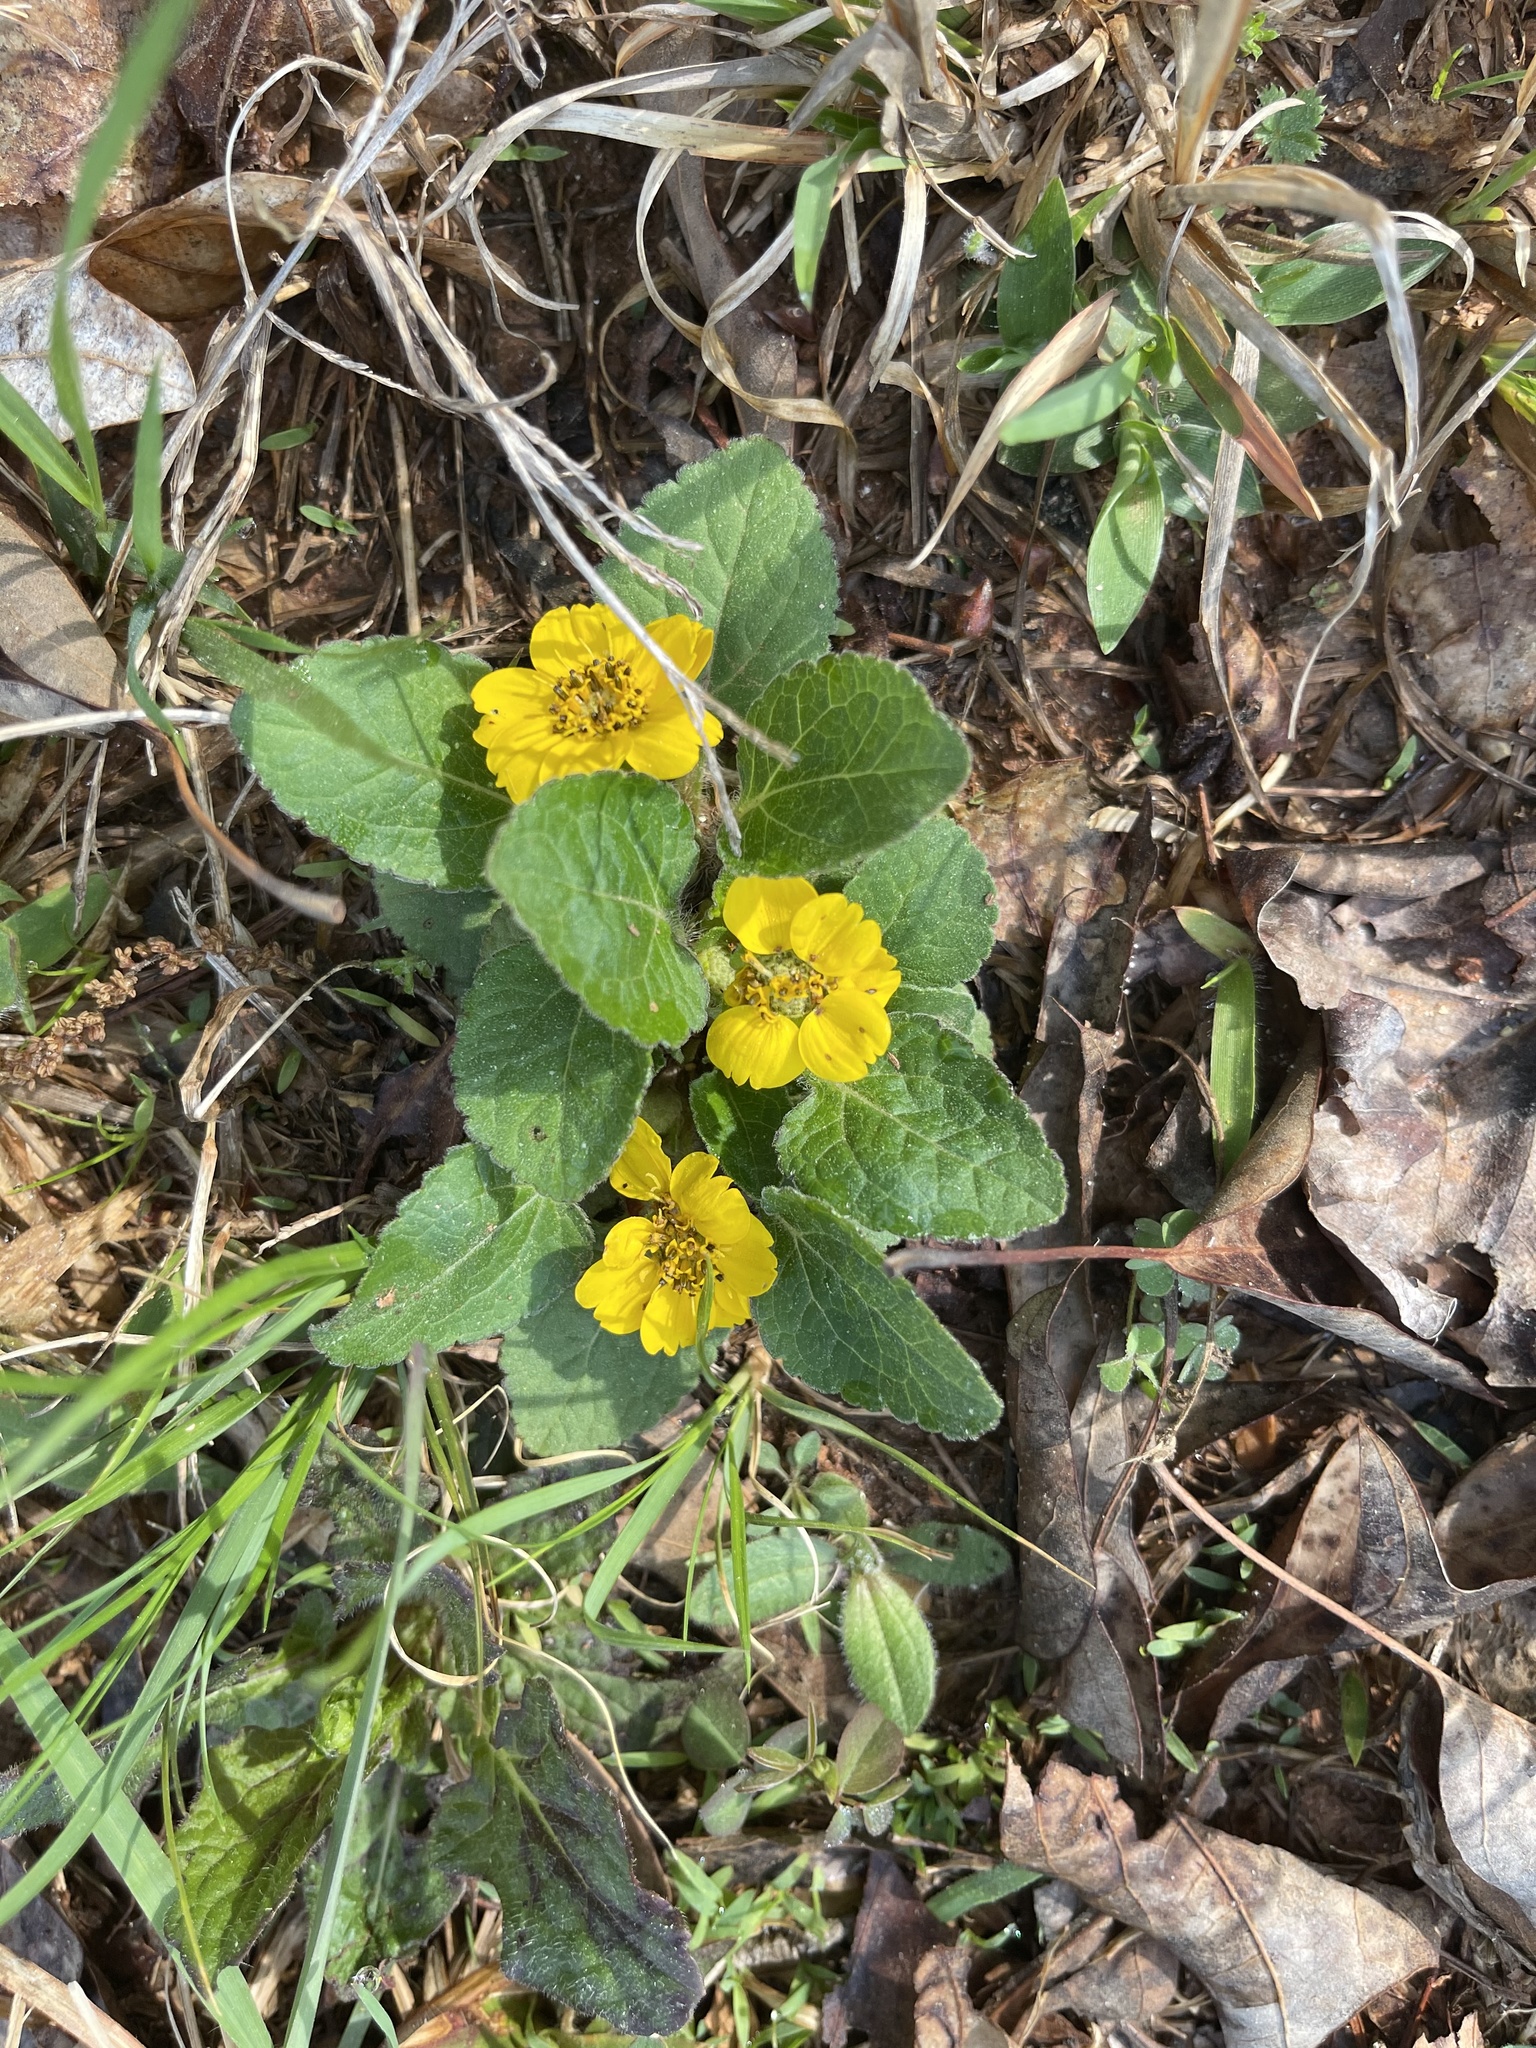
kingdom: Plantae
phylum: Tracheophyta
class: Magnoliopsida
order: Asterales
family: Asteraceae
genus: Chrysogonum
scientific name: Chrysogonum virginianum
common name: Golden-knee
